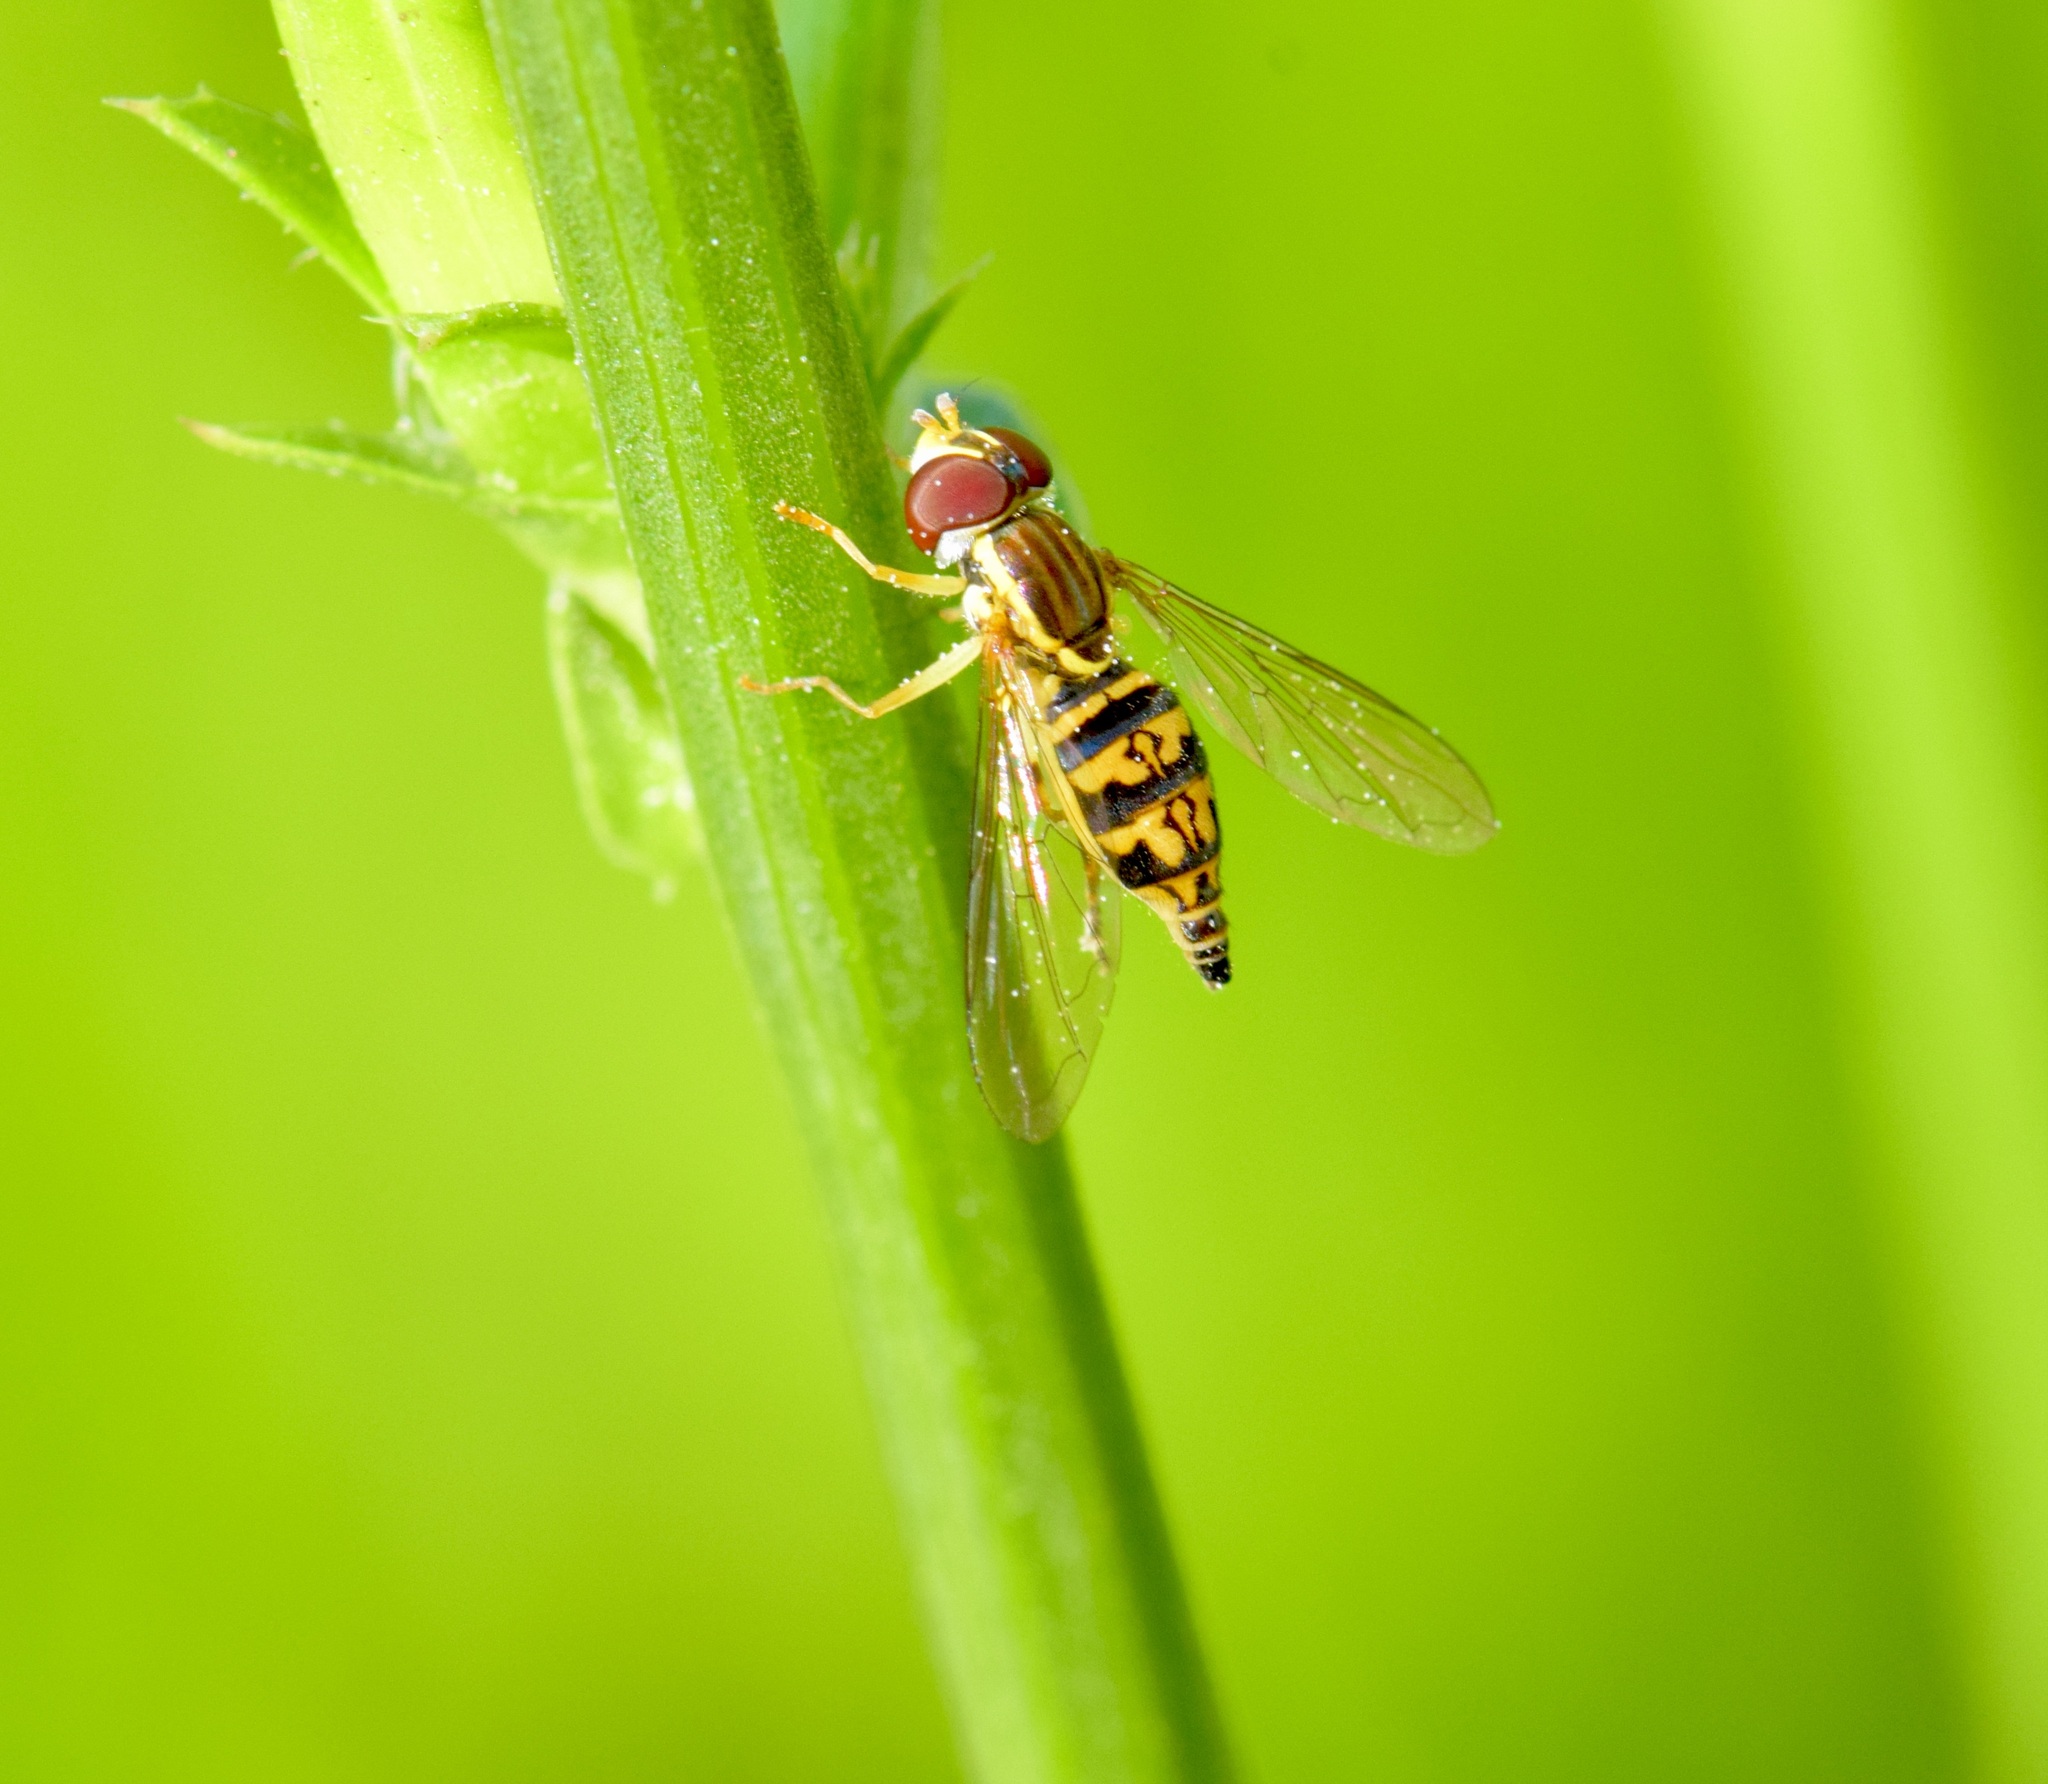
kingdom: Animalia
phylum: Arthropoda
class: Insecta
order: Diptera
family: Syrphidae
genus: Toxomerus
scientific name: Toxomerus geminatus
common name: Eastern calligrapher
